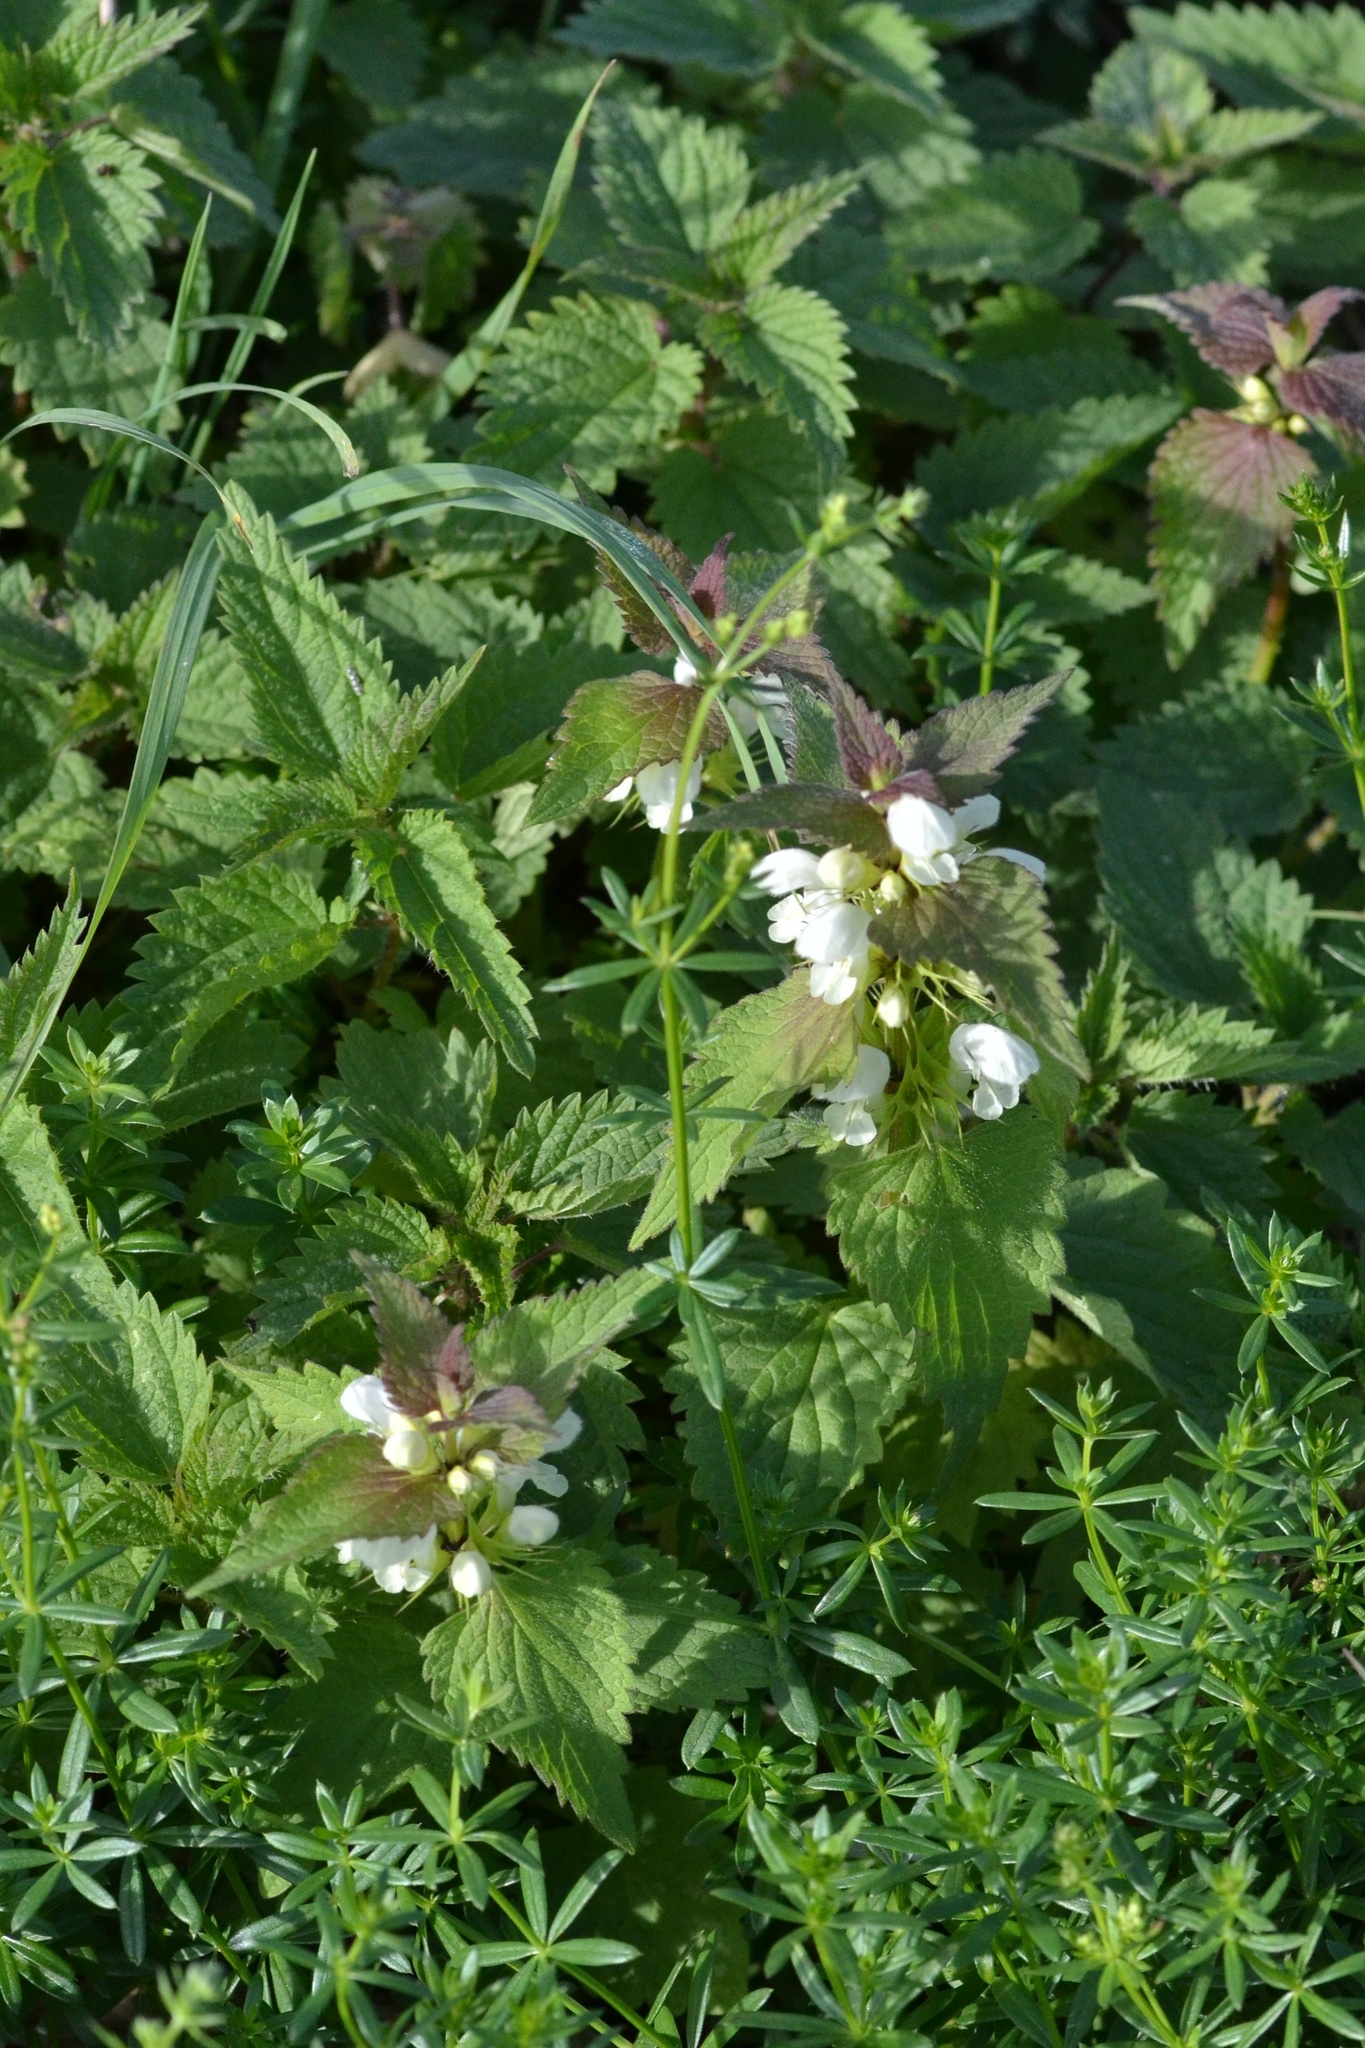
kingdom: Plantae
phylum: Tracheophyta
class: Magnoliopsida
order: Lamiales
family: Lamiaceae
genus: Lamium
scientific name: Lamium album
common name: White dead-nettle
